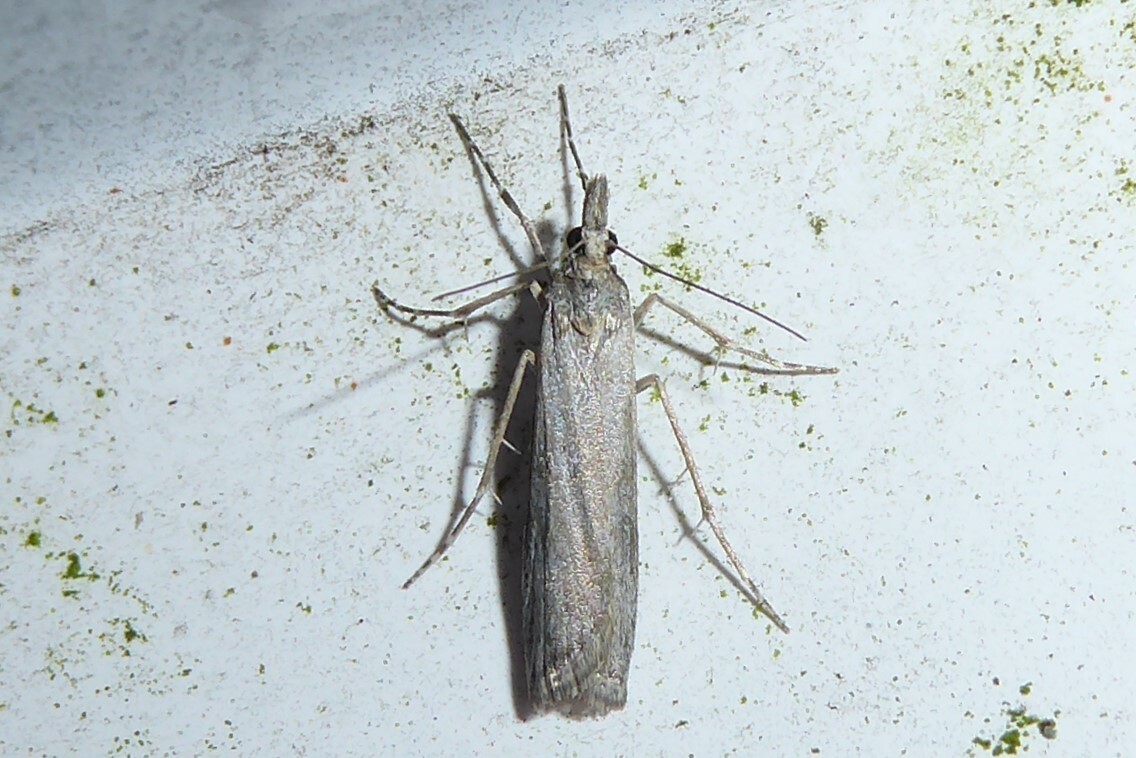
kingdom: Animalia
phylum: Arthropoda
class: Insecta
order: Lepidoptera
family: Crambidae
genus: Eudonia
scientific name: Eudonia leptalea
